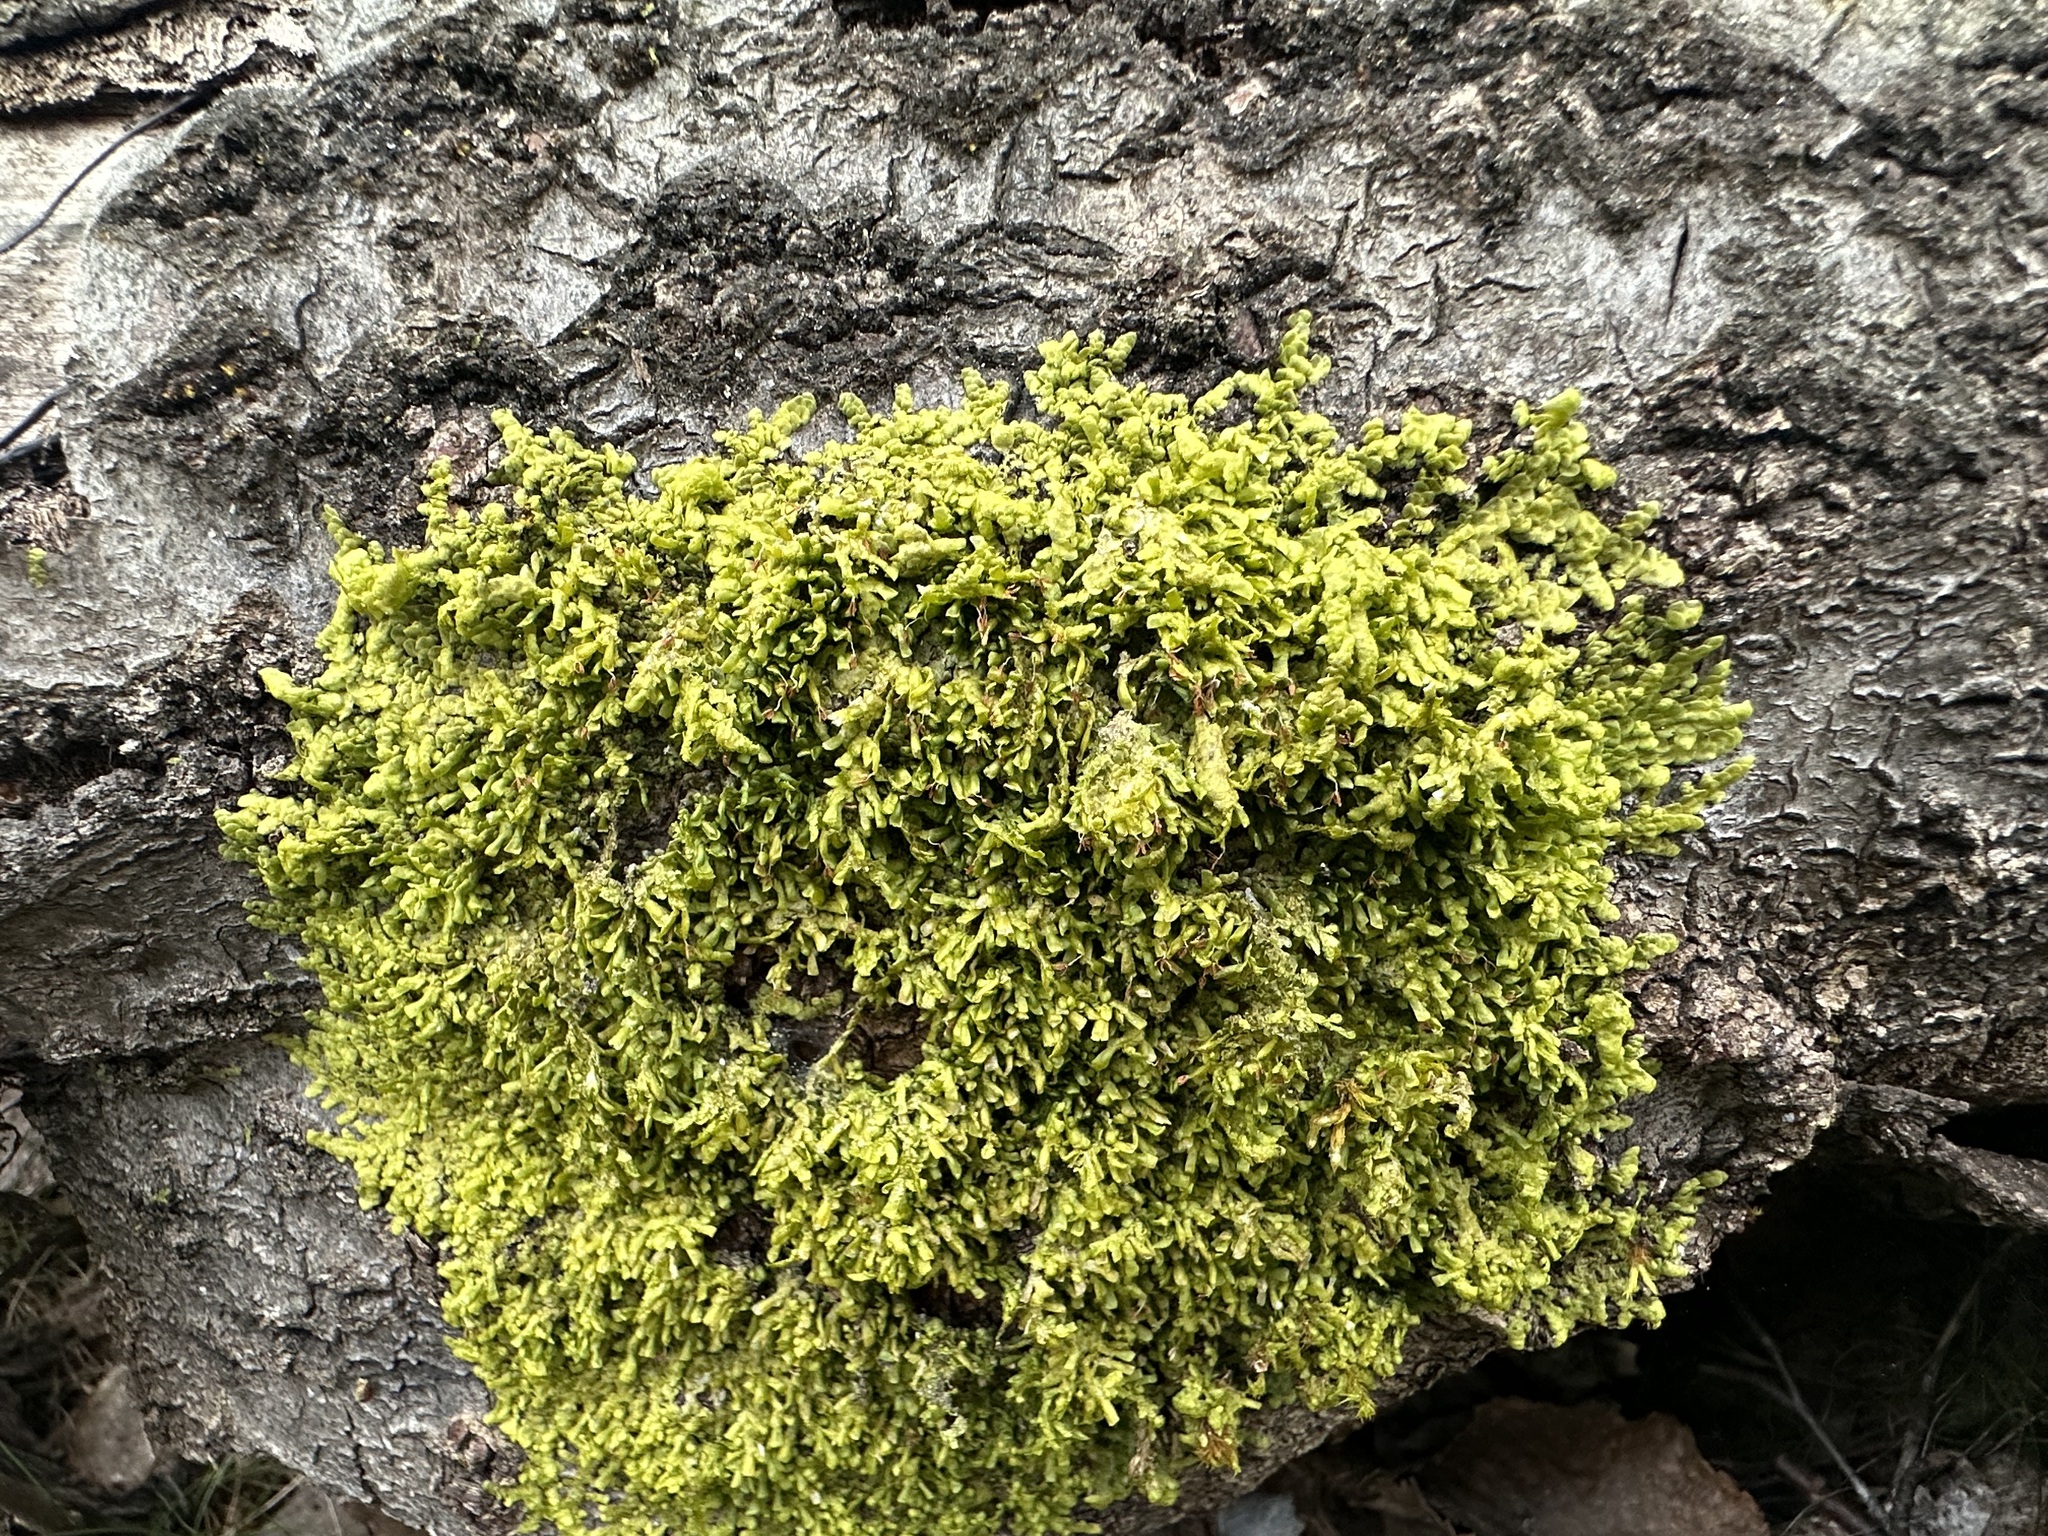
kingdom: Plantae
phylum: Marchantiophyta
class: Jungermanniopsida
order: Porellales
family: Radulaceae
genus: Radula
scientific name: Radula complanata
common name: Flat-leaved scalewort
